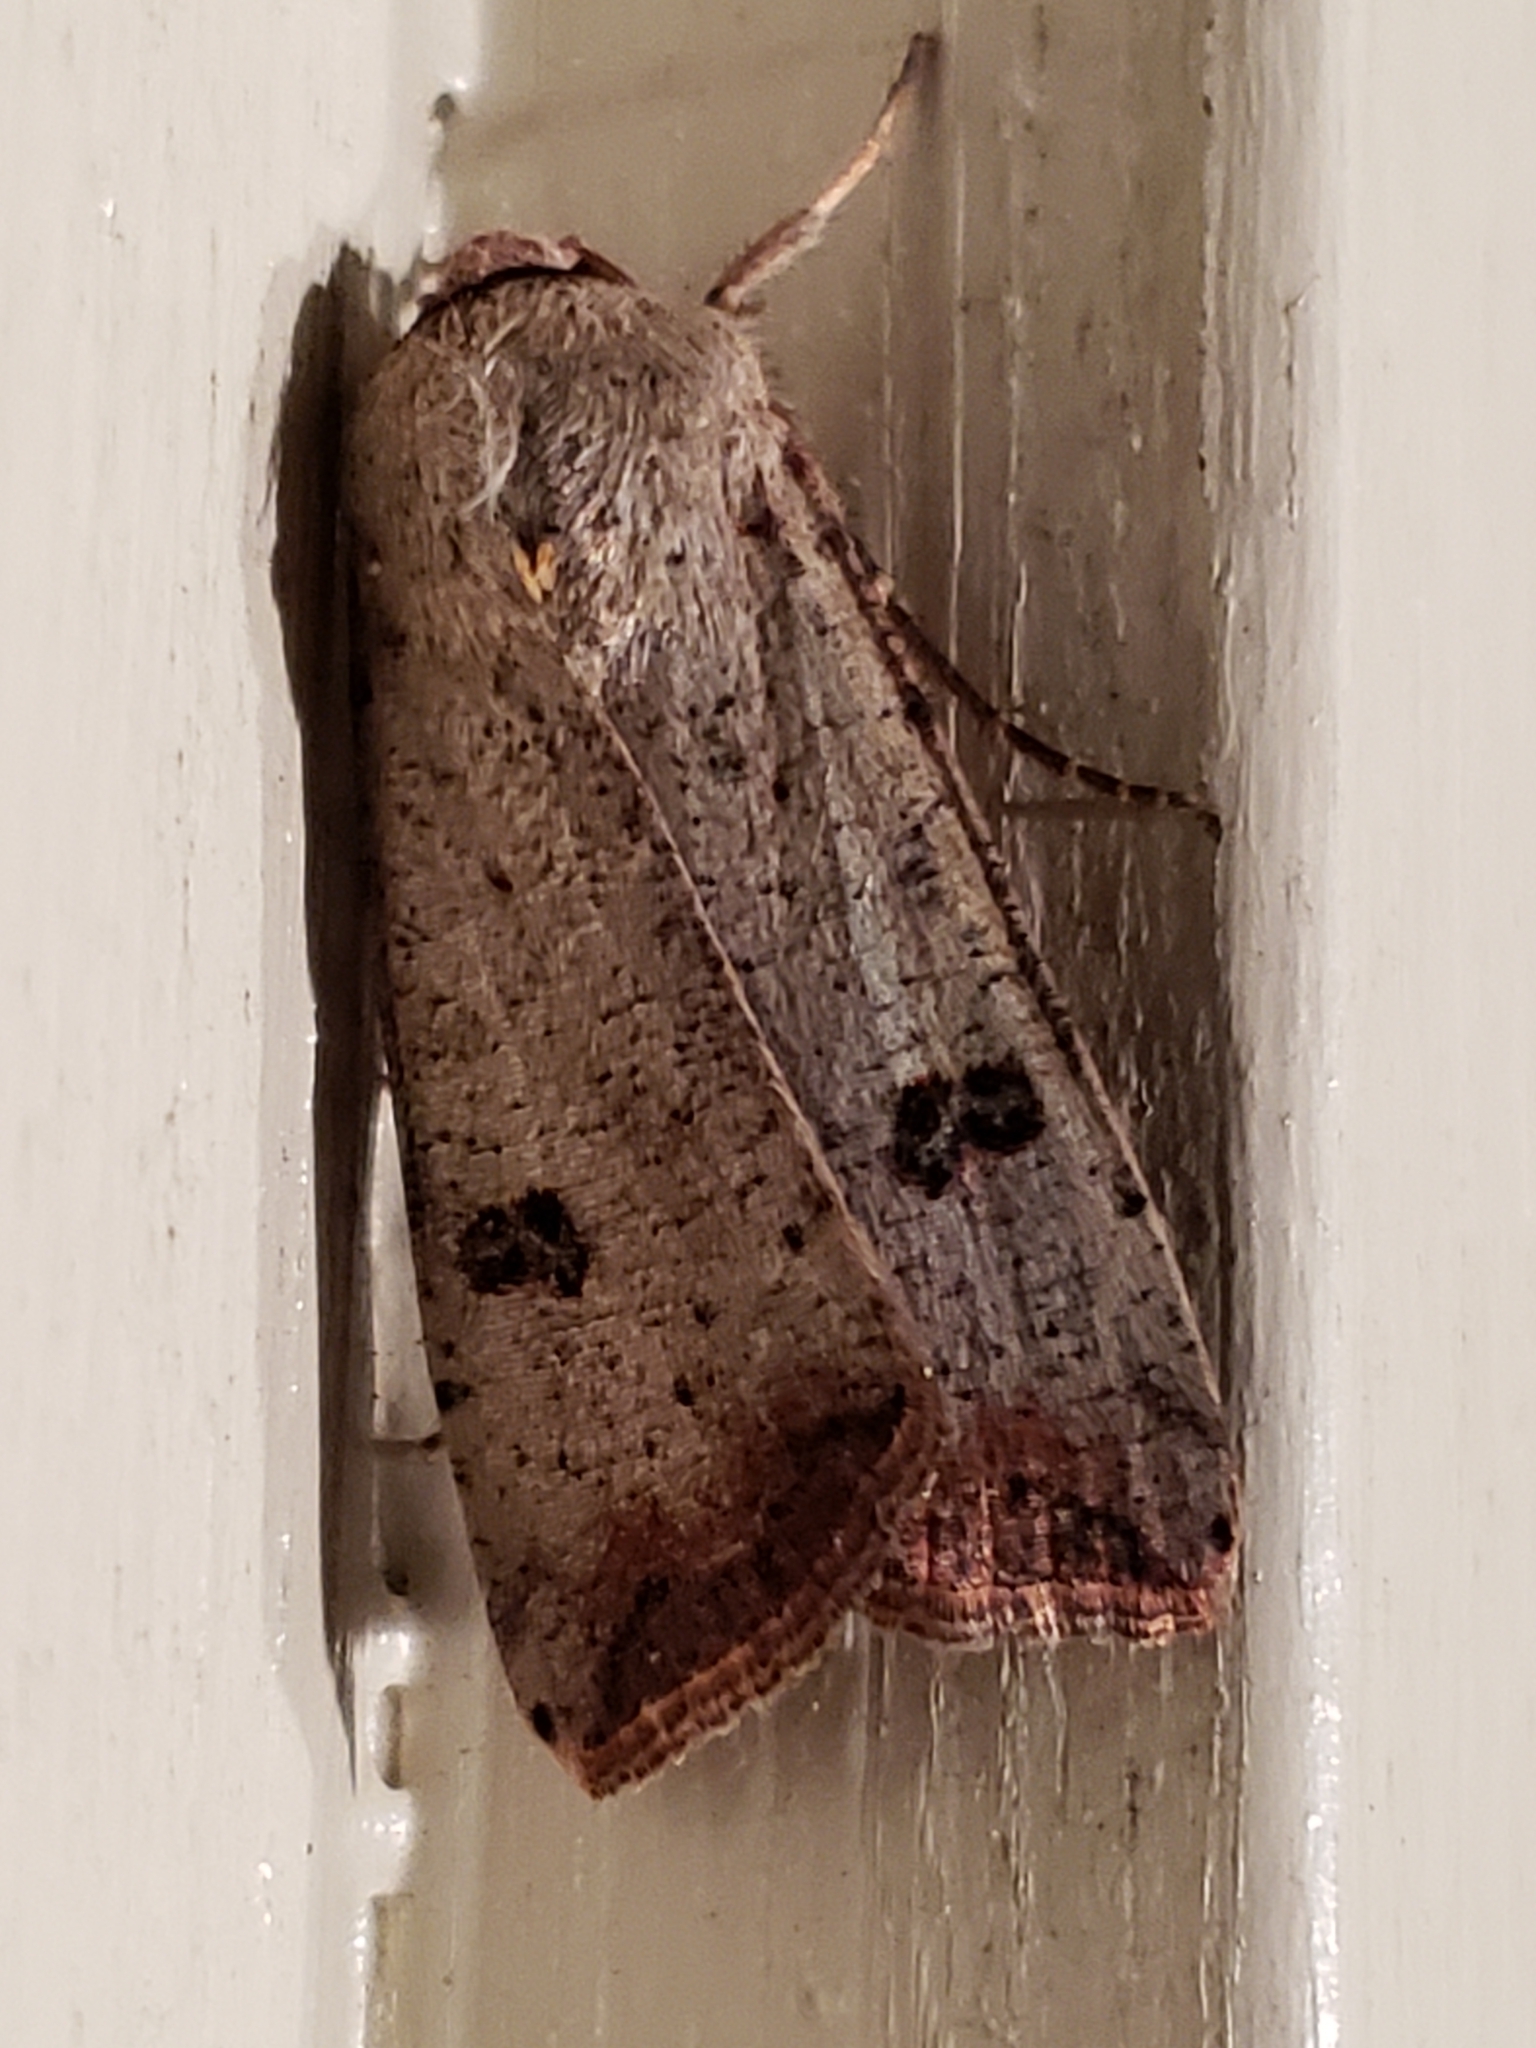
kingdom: Animalia
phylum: Arthropoda
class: Insecta
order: Lepidoptera
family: Noctuidae
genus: Anicla
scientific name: Anicla infecta
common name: Green cutworm
